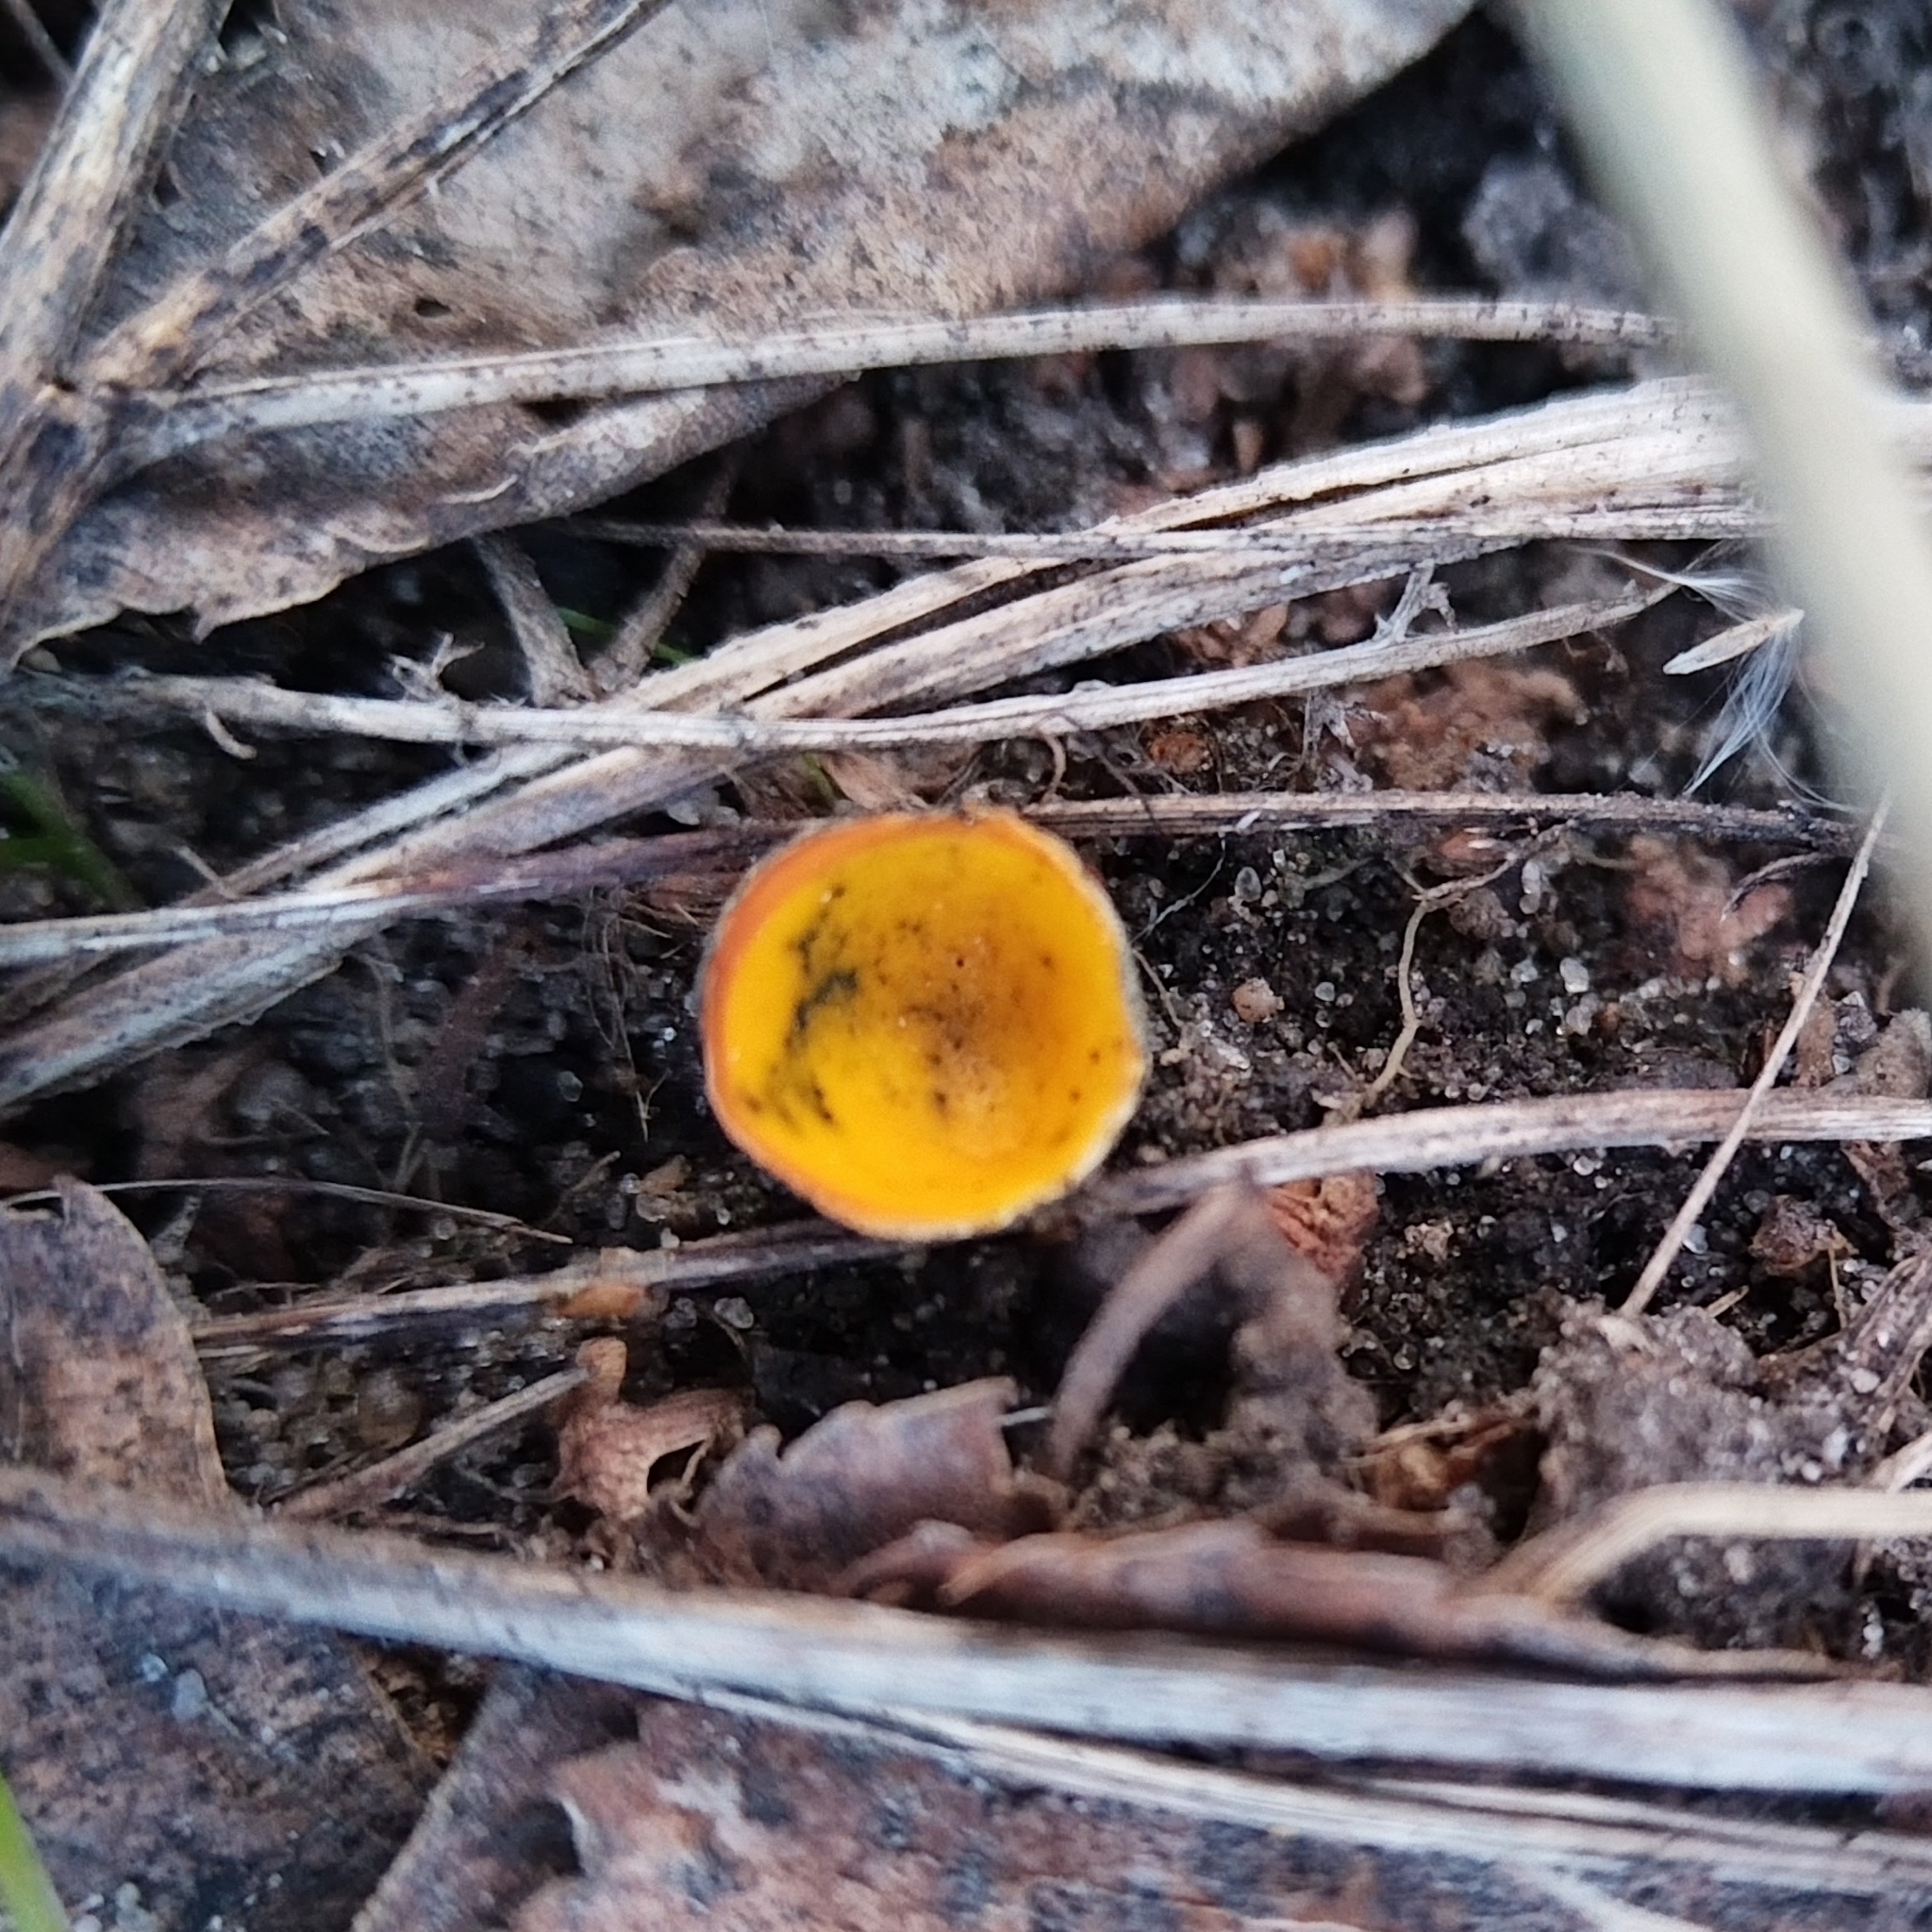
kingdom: Fungi
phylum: Ascomycota
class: Pezizomycetes
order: Pezizales
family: Caloscyphaceae
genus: Caloscypha
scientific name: Caloscypha fulgens
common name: Golden cup
